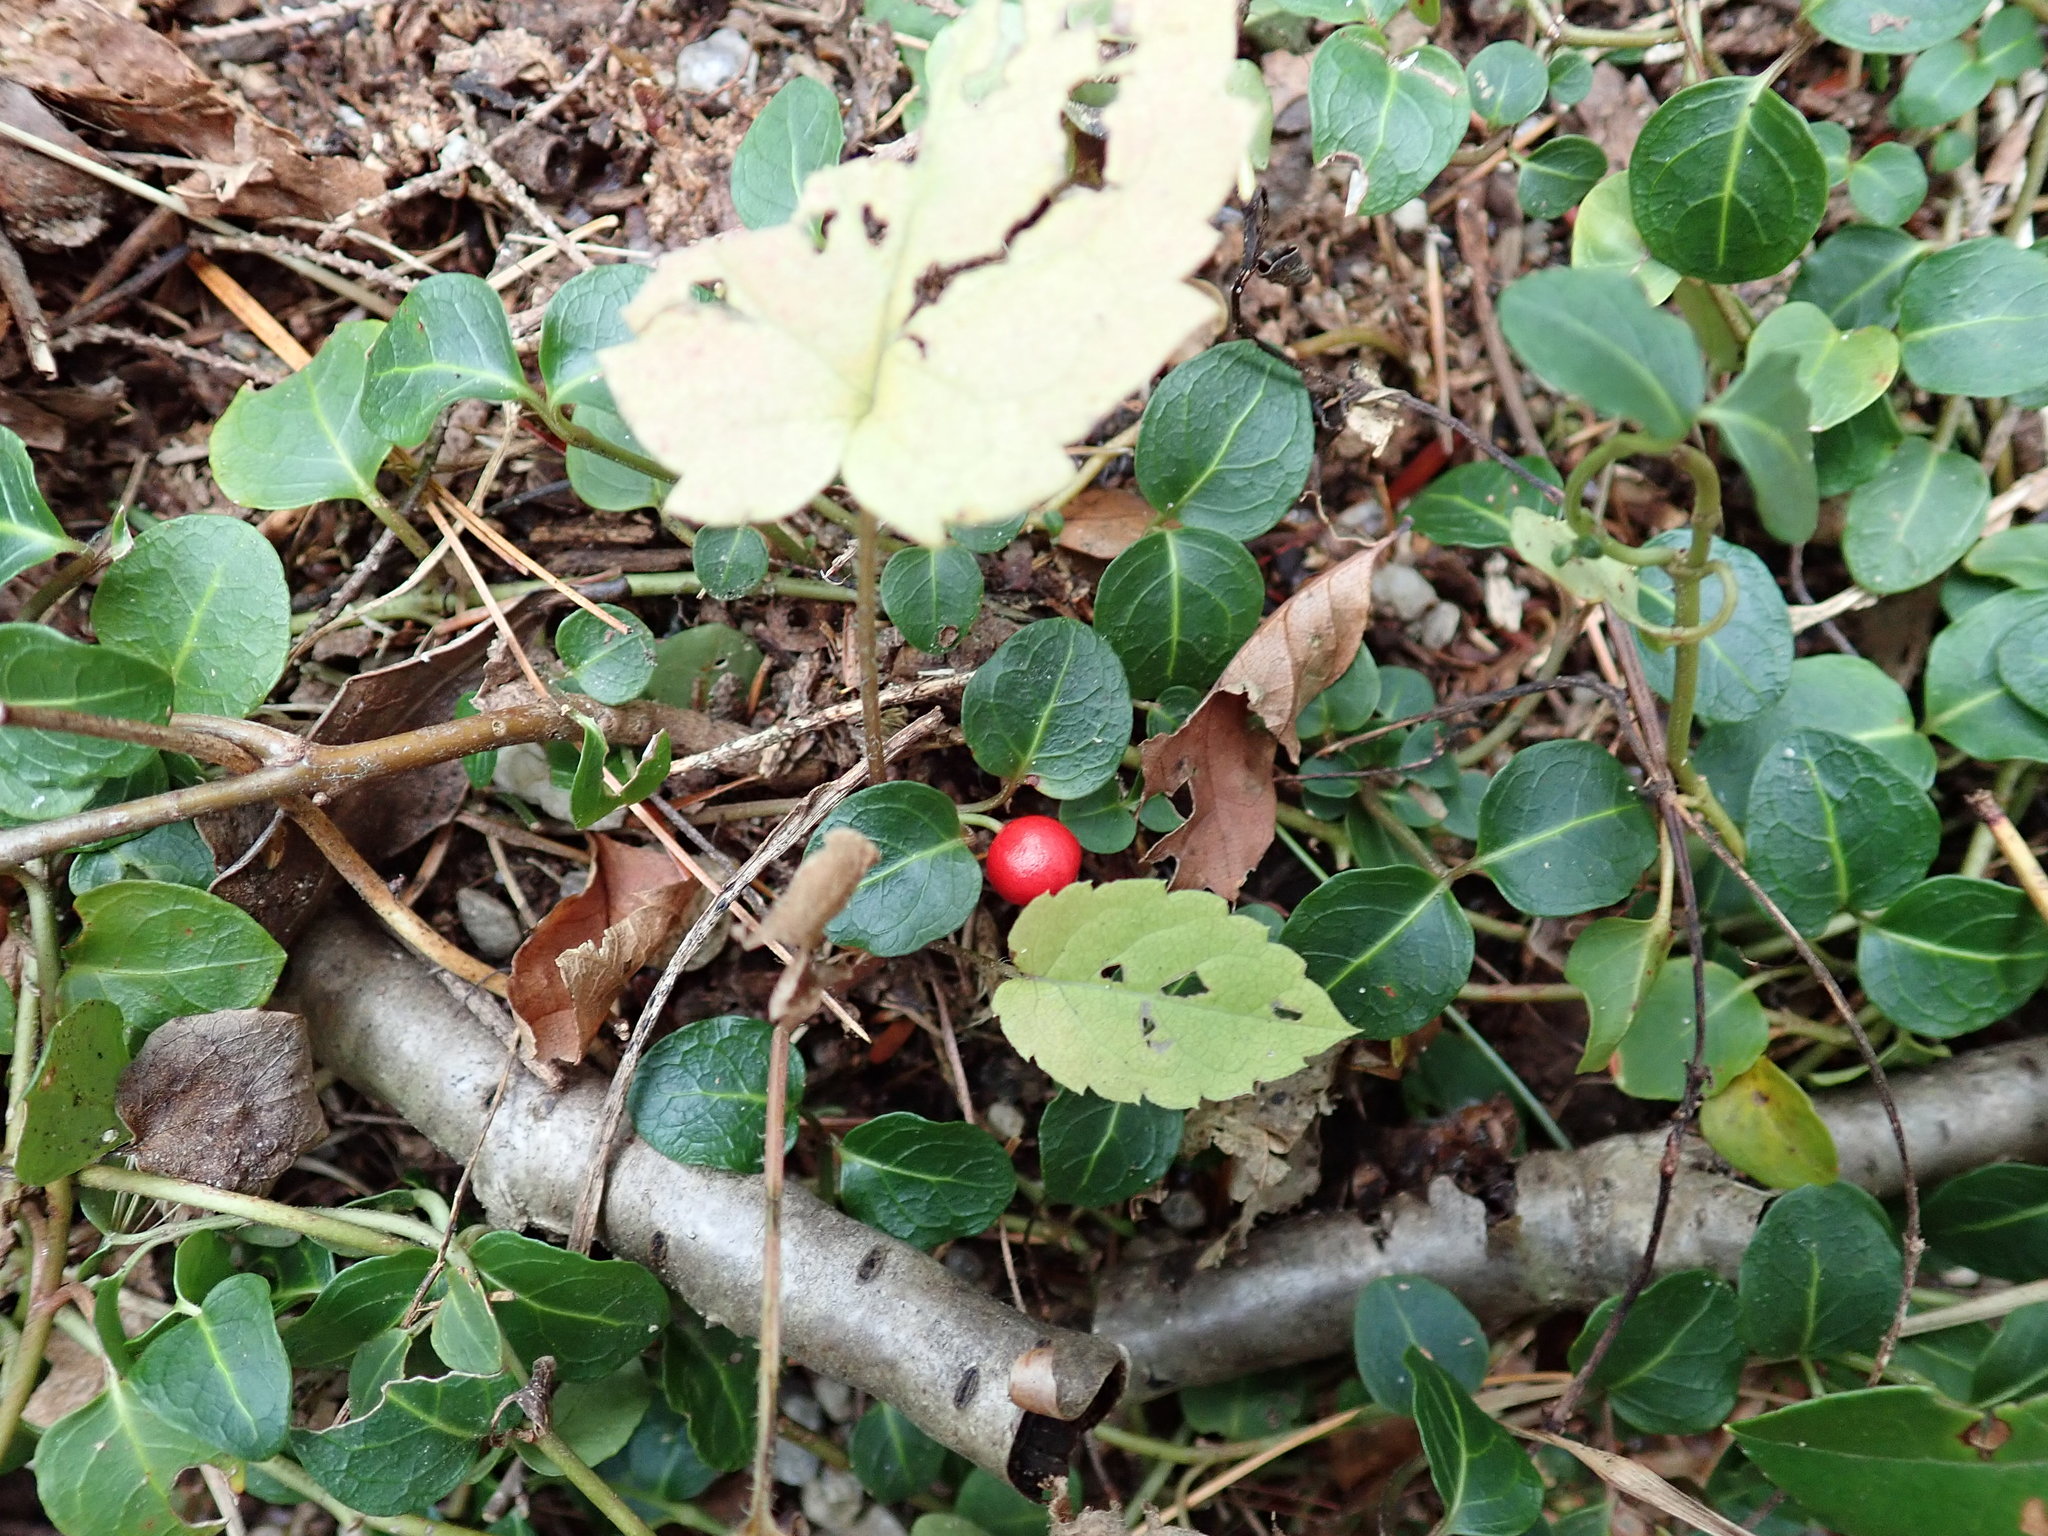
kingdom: Plantae
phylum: Tracheophyta
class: Magnoliopsida
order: Gentianales
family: Rubiaceae
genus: Mitchella
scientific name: Mitchella repens
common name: Partridge-berry
